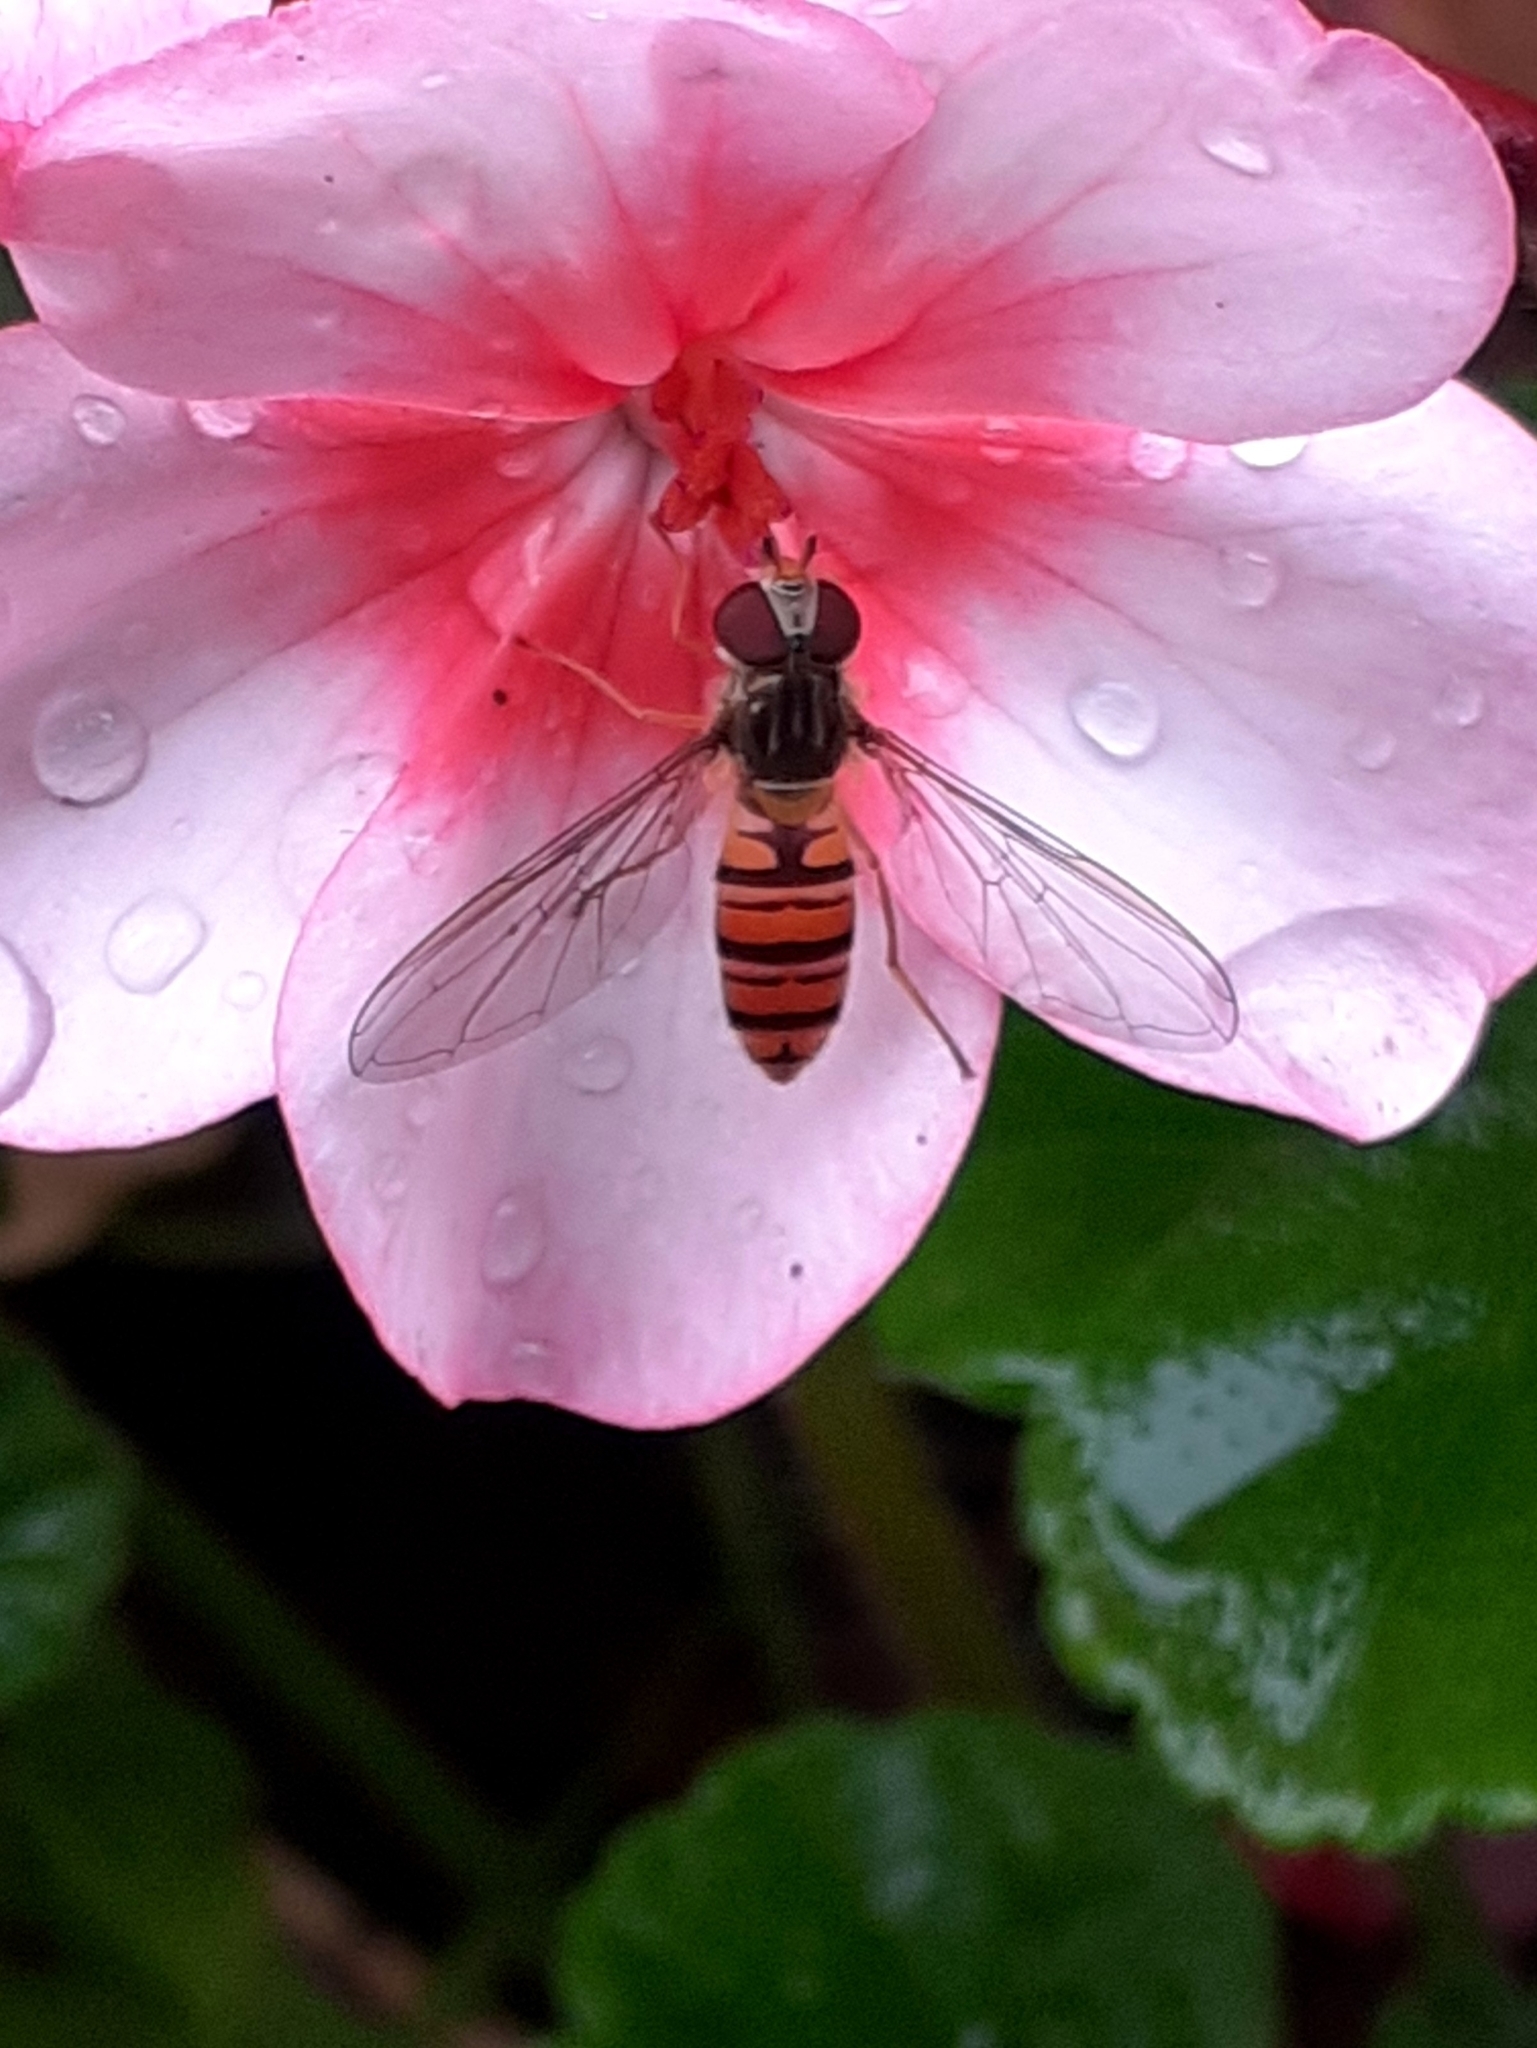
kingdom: Animalia
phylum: Arthropoda
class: Insecta
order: Diptera
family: Syrphidae
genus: Episyrphus
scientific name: Episyrphus balteatus
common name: Marmalade hoverfly
